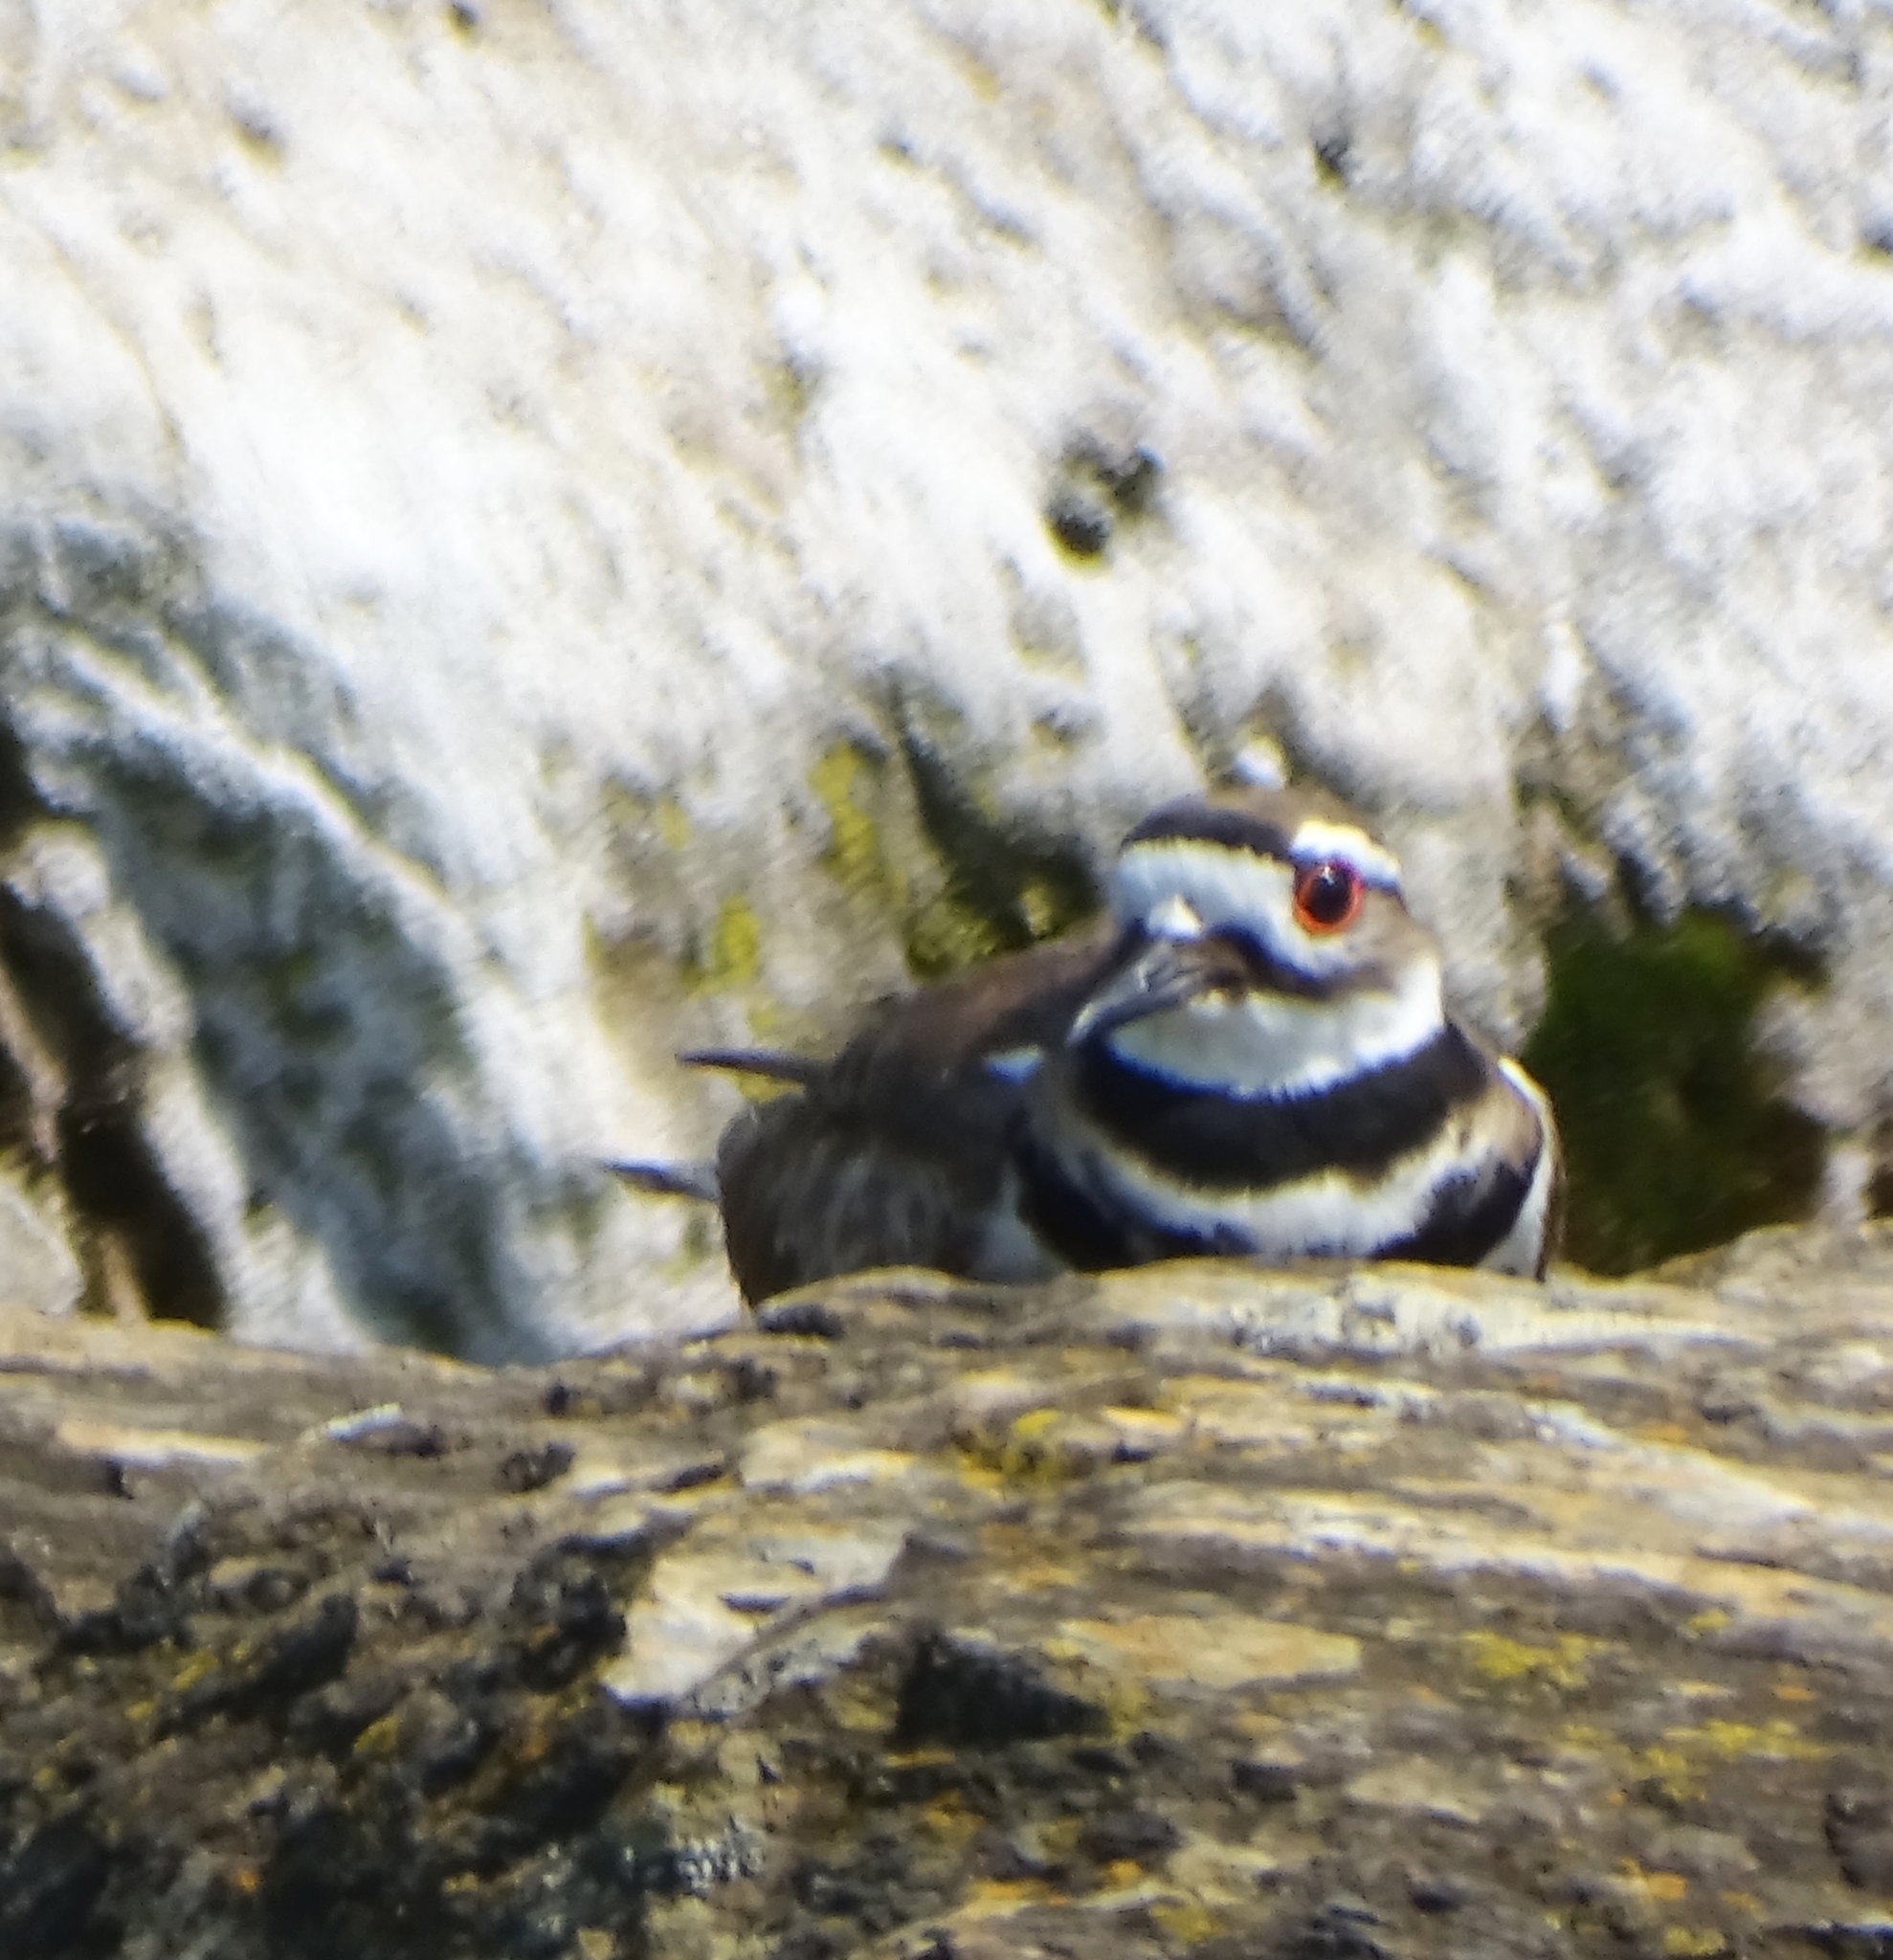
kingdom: Animalia
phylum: Chordata
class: Aves
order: Charadriiformes
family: Charadriidae
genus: Charadrius
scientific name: Charadrius vociferus
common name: Killdeer
